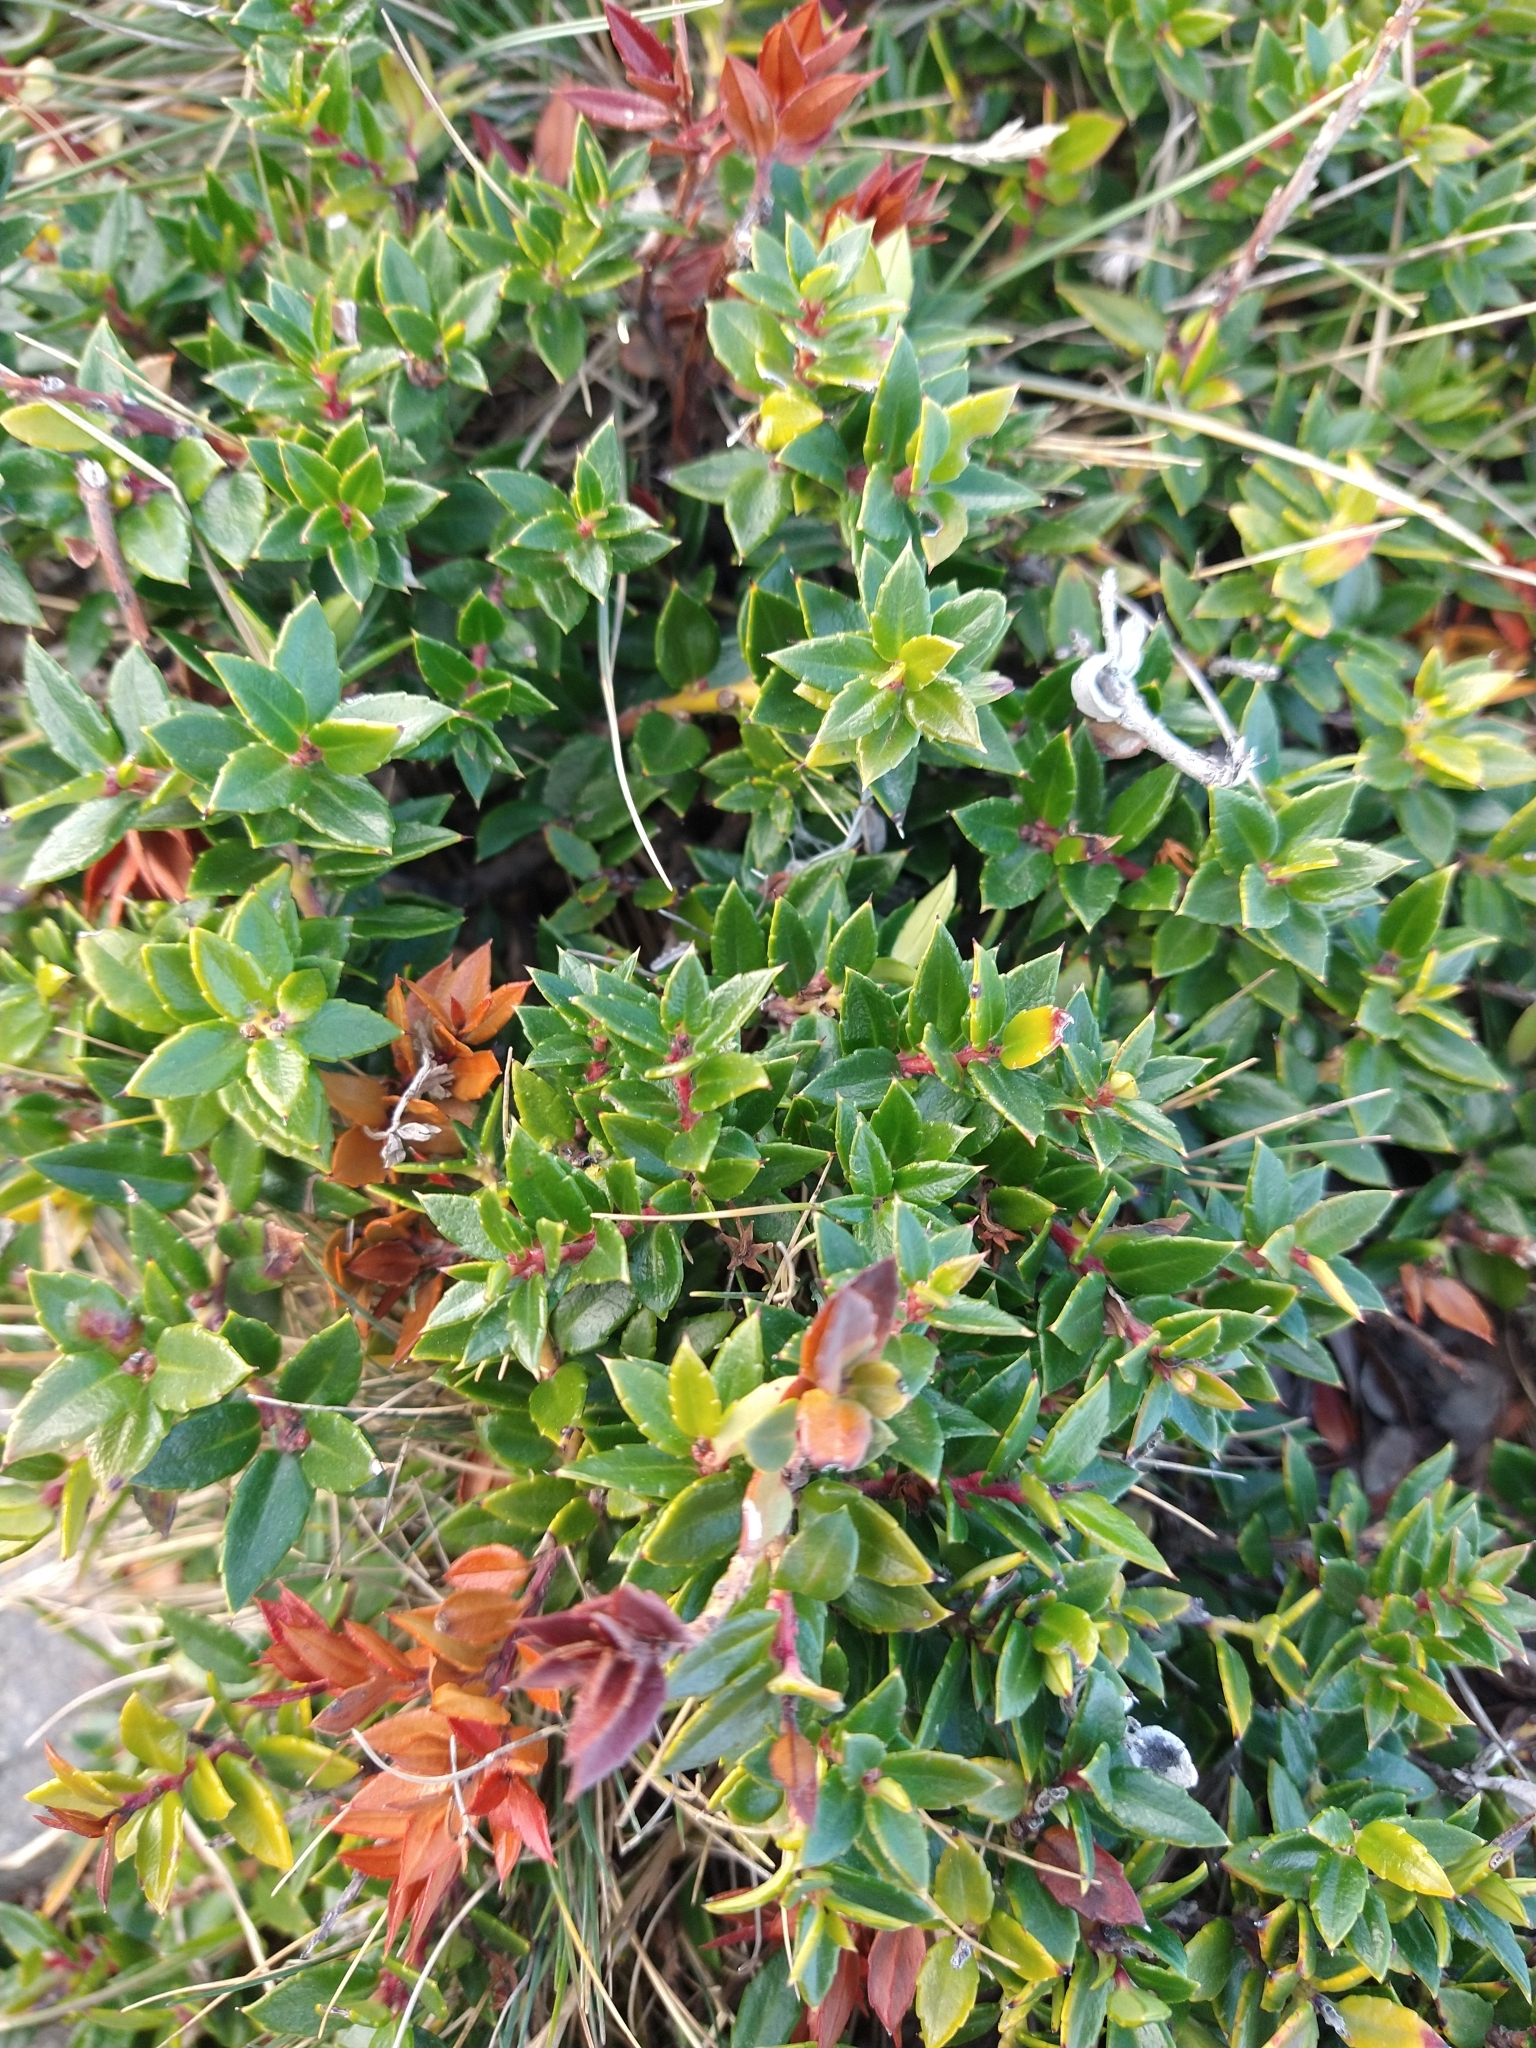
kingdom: Plantae
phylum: Tracheophyta
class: Magnoliopsida
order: Ericales
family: Ericaceae
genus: Gaultheria
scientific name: Gaultheria mucronata
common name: Prickly heath
